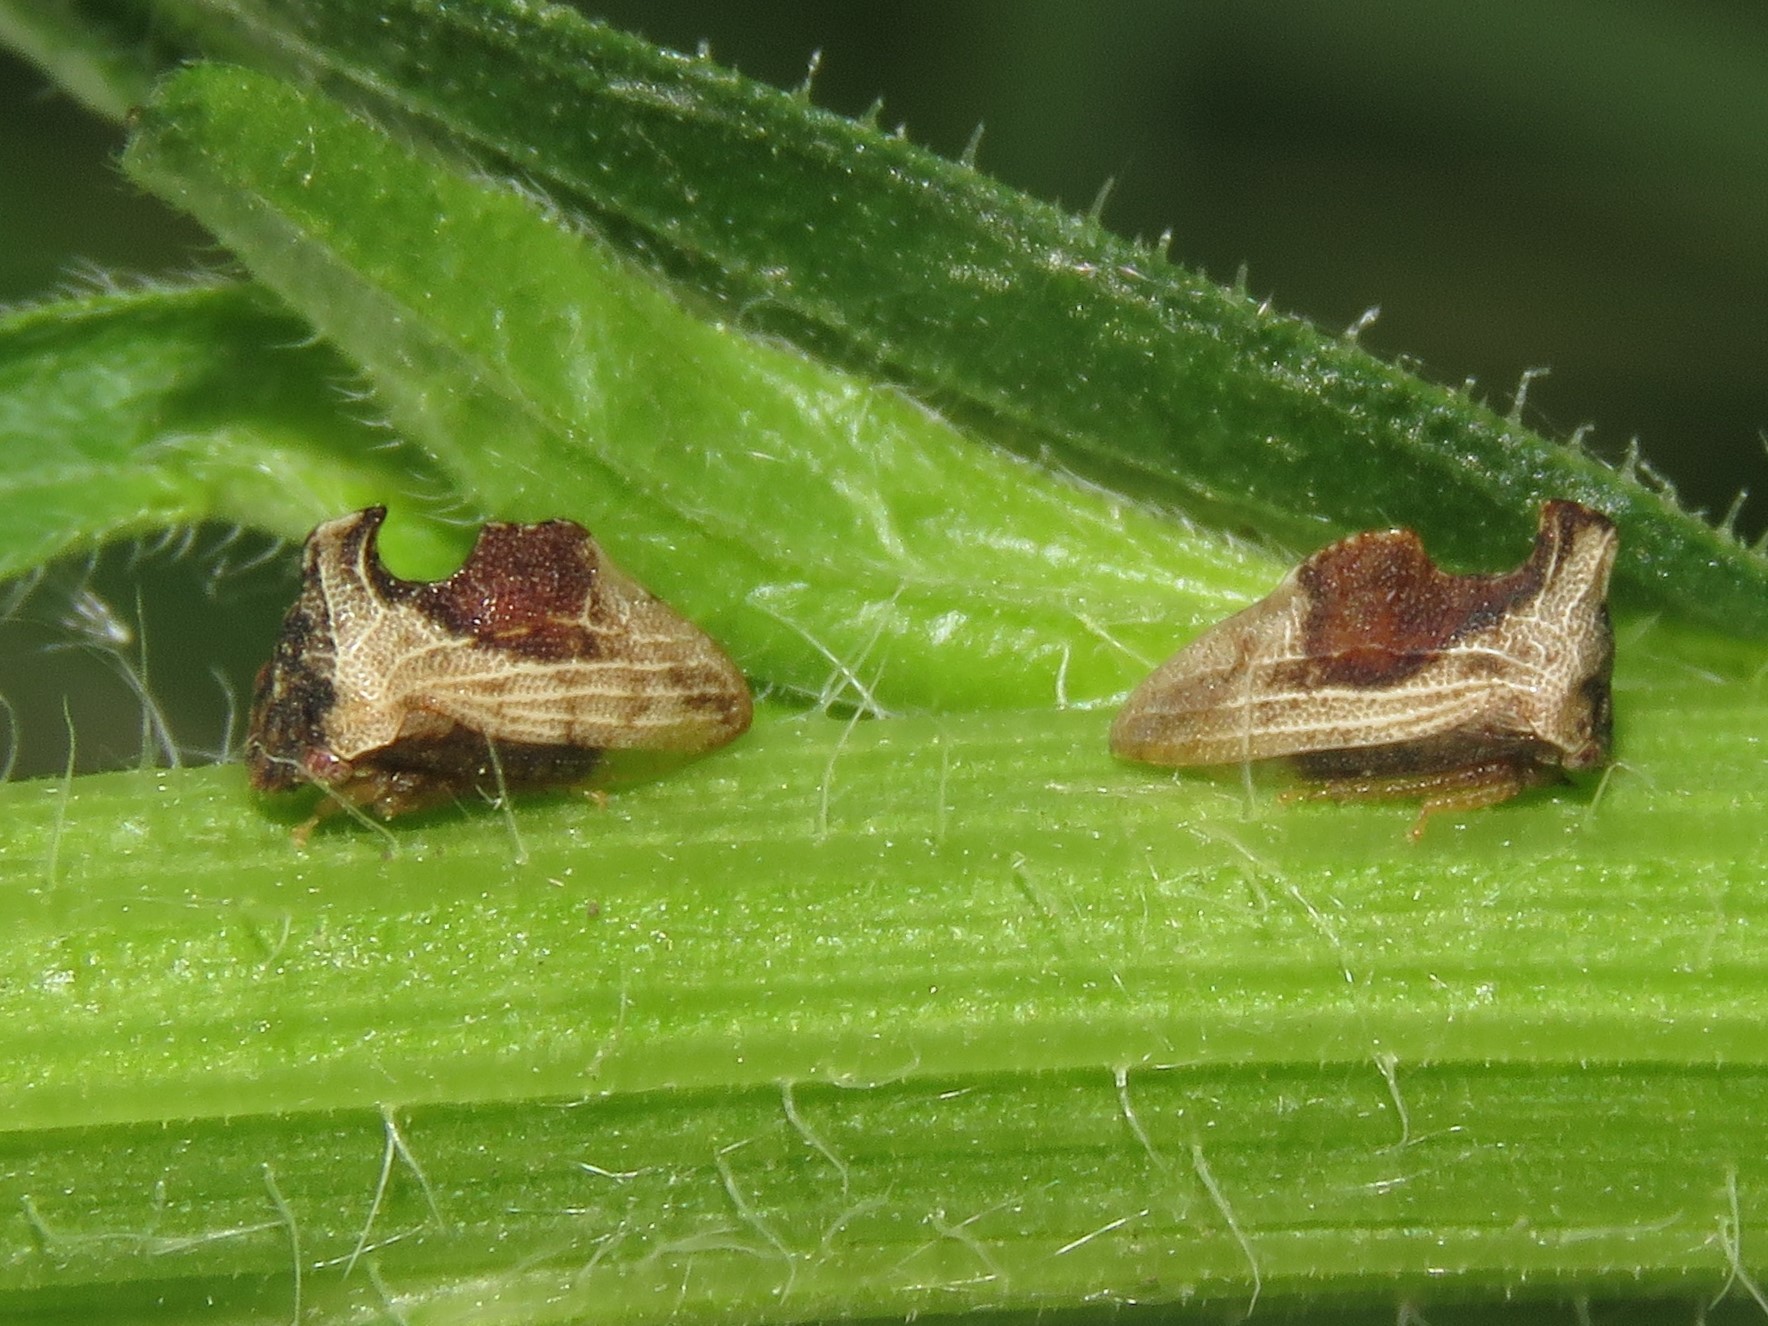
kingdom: Animalia
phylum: Arthropoda
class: Insecta
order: Hemiptera
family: Membracidae
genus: Entylia
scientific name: Entylia carinata
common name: Keeled treehopper
